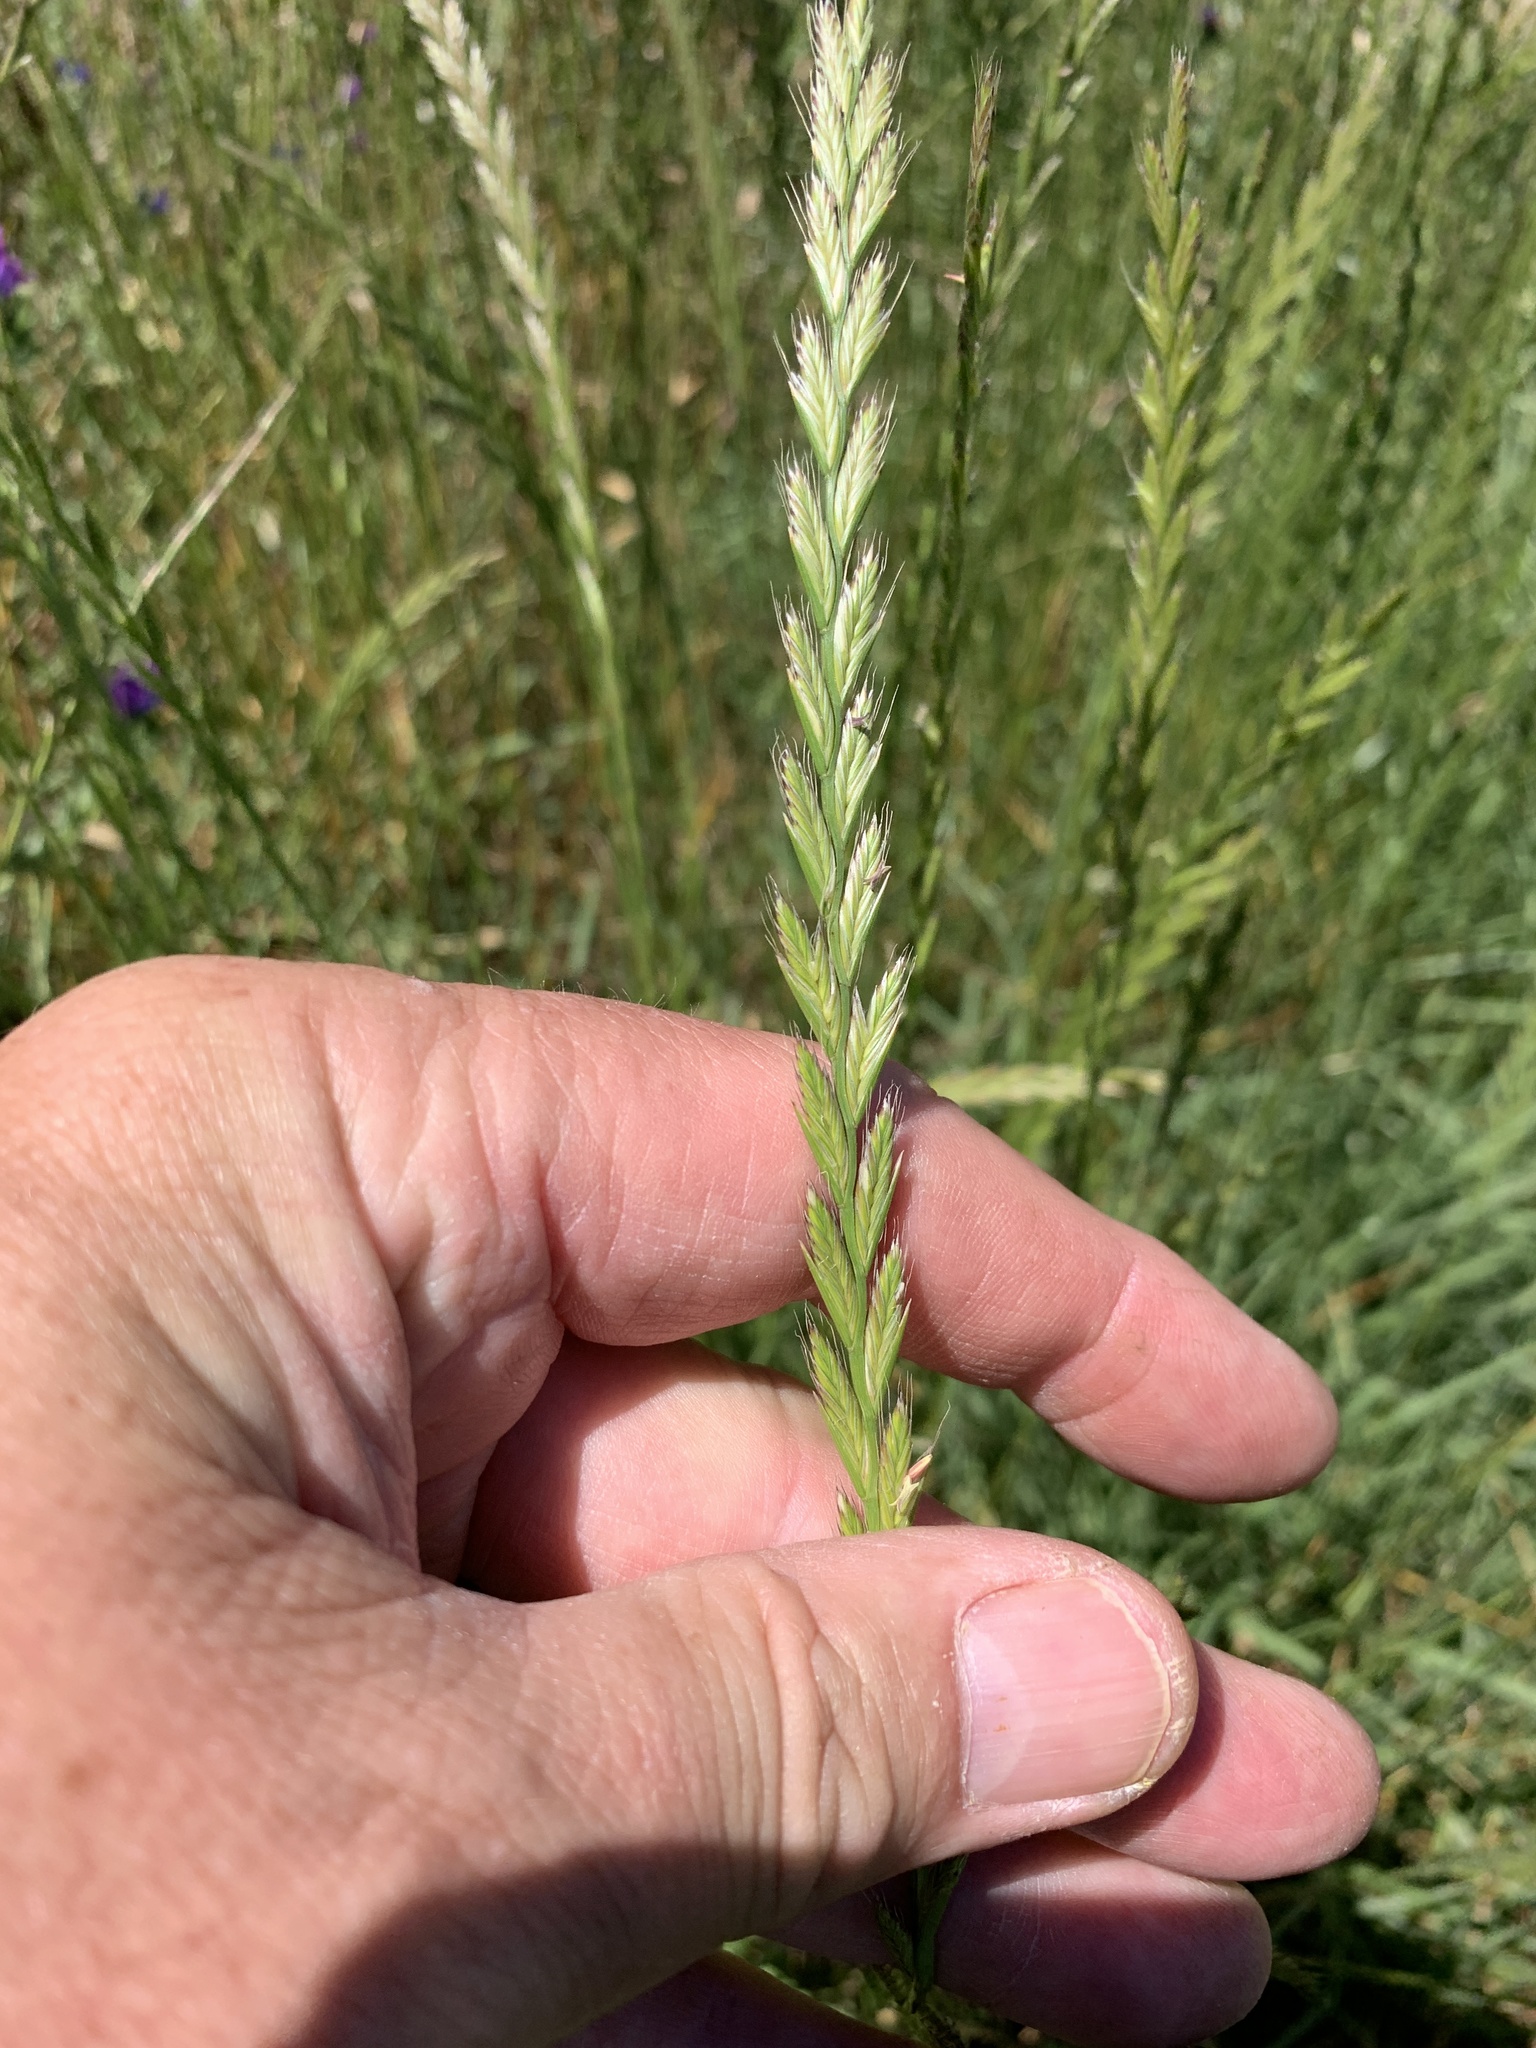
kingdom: Plantae
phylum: Tracheophyta
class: Liliopsida
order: Poales
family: Poaceae
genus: Lolium
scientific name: Lolium multiflorum
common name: Annual ryegrass
